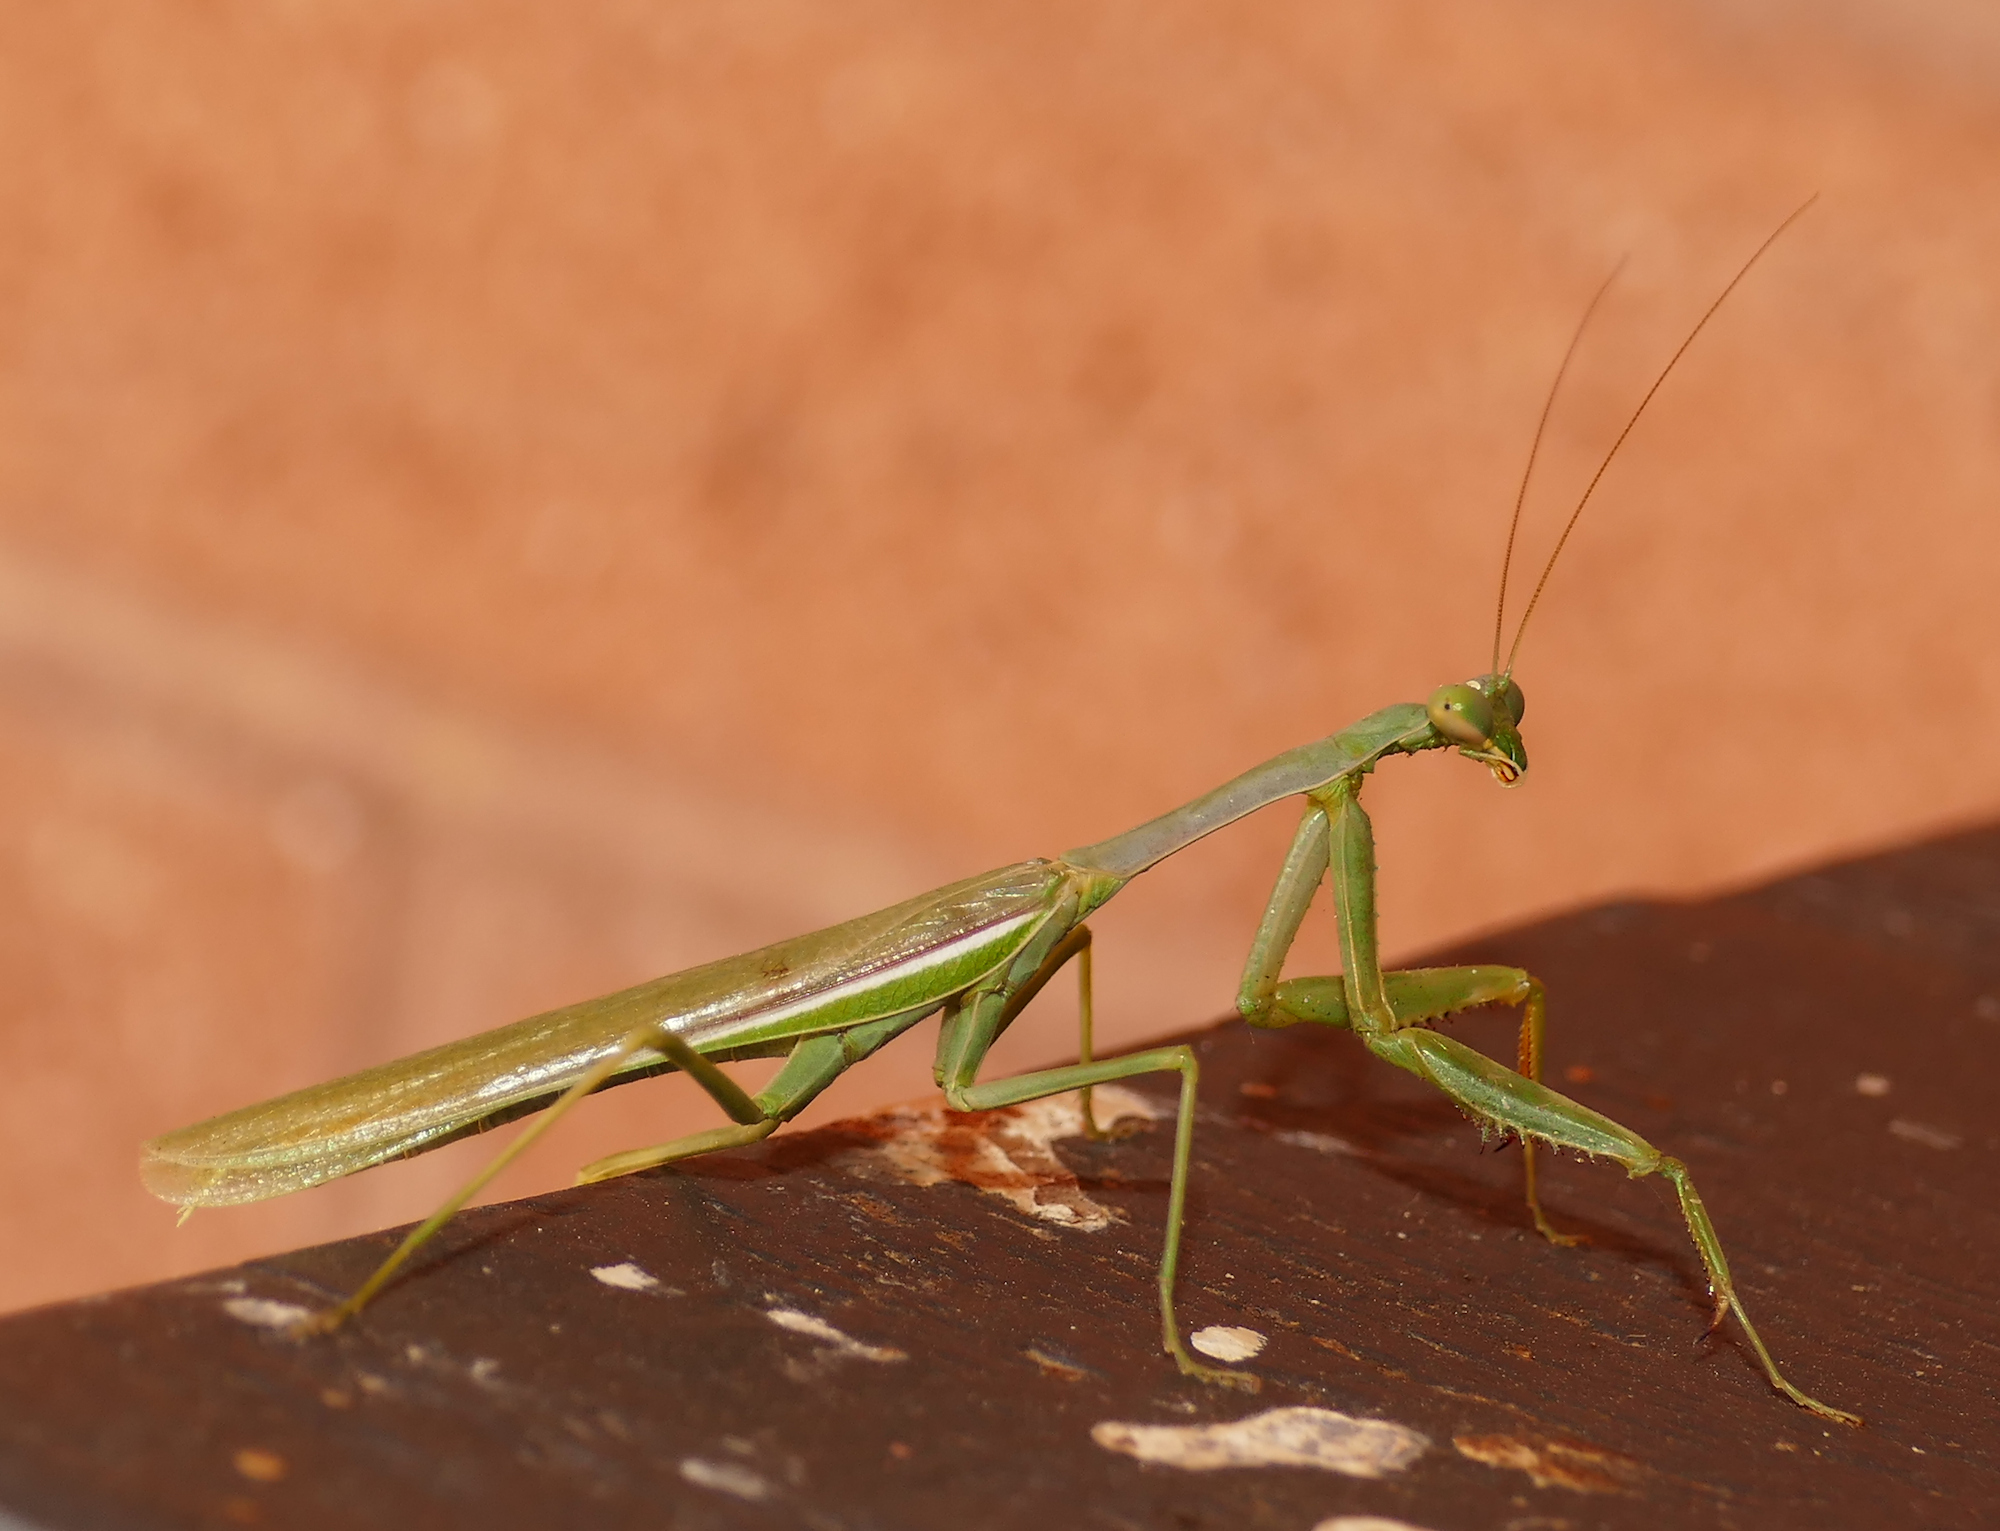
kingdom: Animalia
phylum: Arthropoda
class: Insecta
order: Mantodea
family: Mantidae
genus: Stagmomantis
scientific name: Stagmomantis limbata
